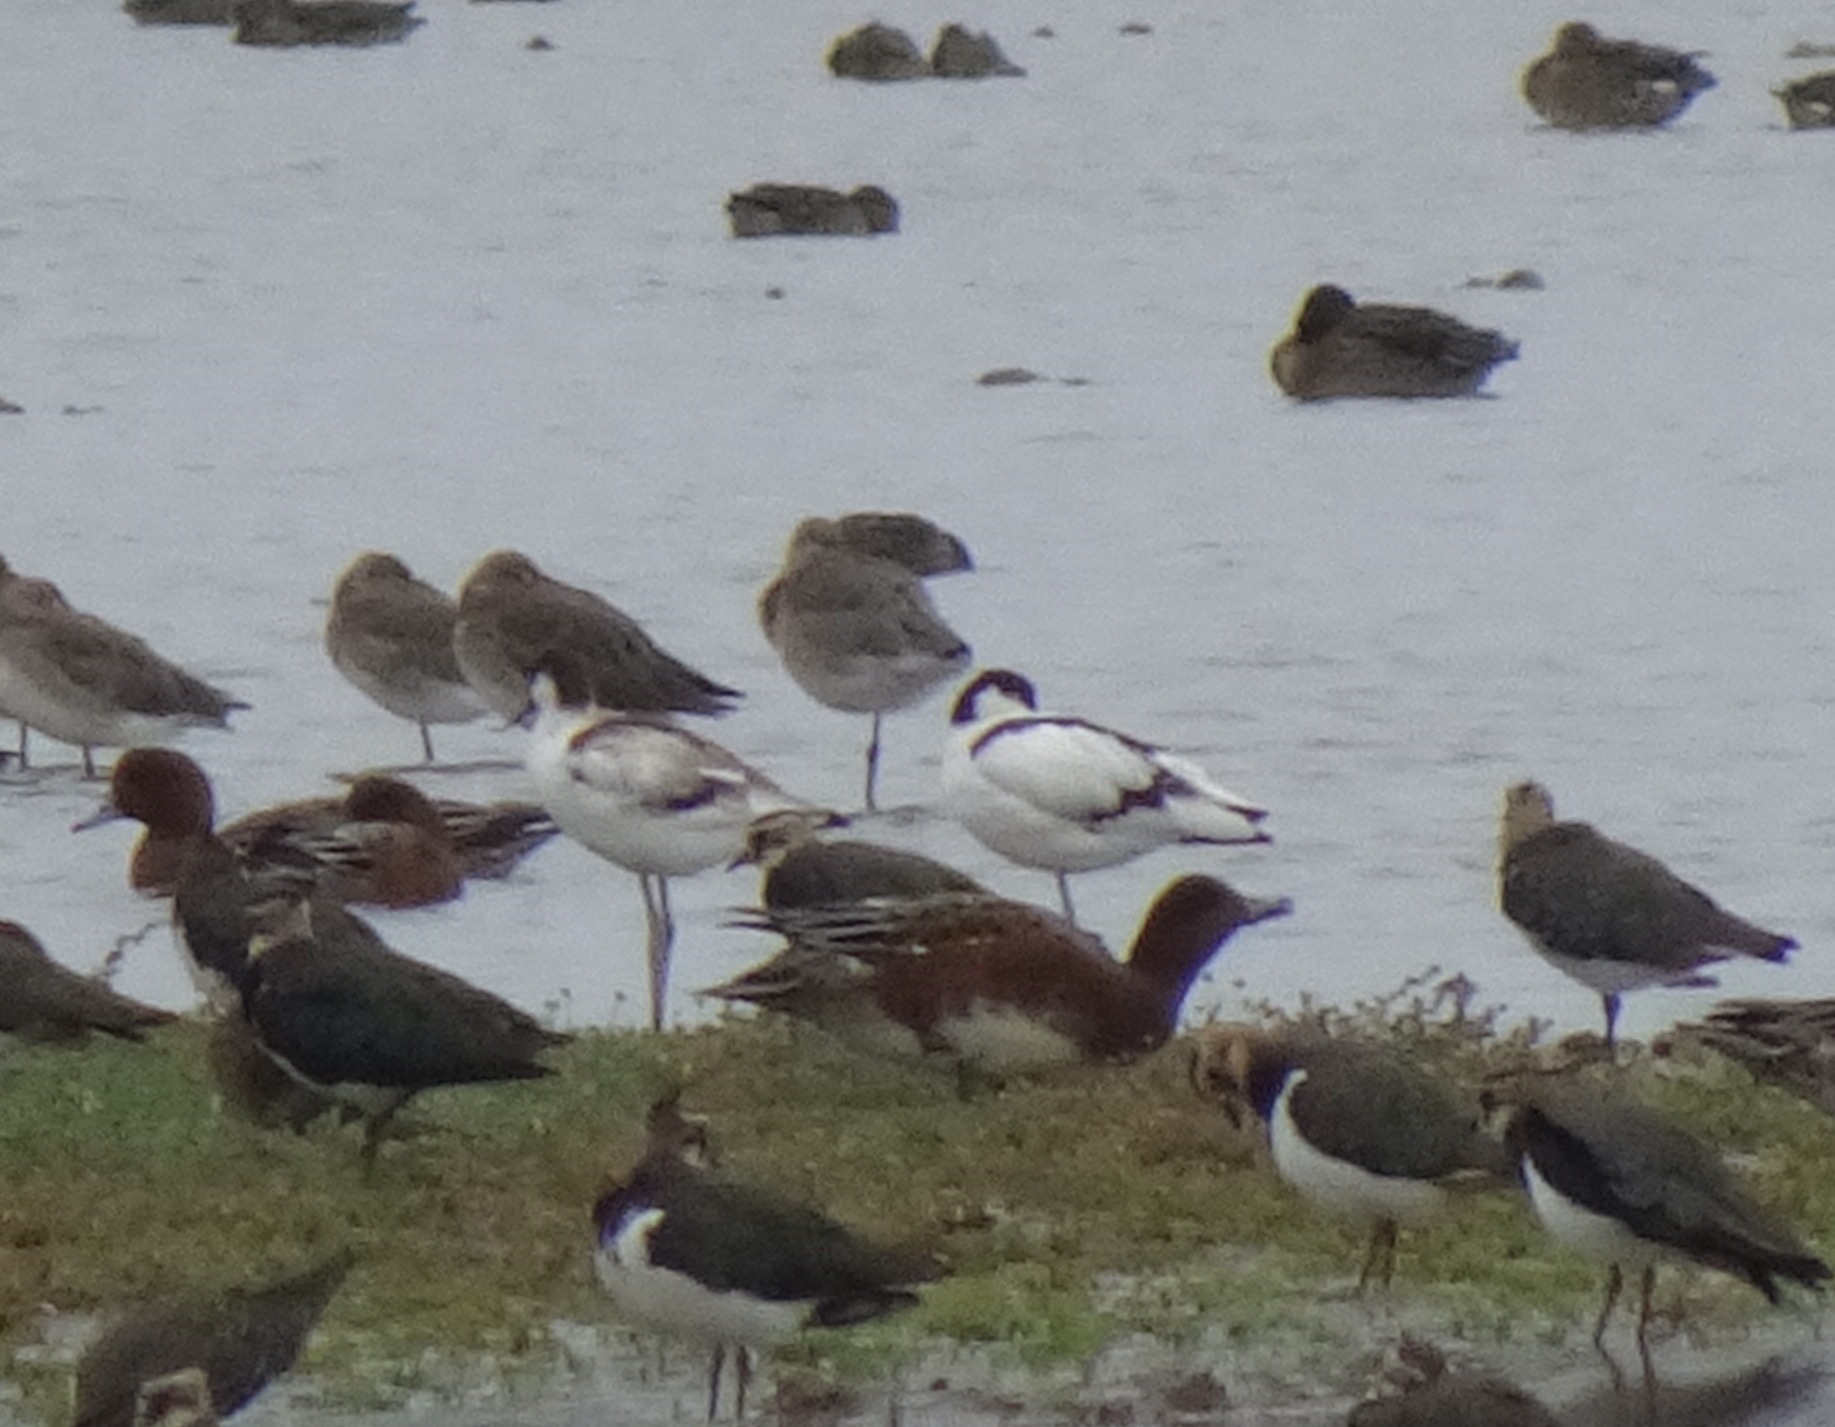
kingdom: Animalia
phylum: Chordata
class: Aves
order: Charadriiformes
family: Recurvirostridae
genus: Recurvirostra
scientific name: Recurvirostra avosetta
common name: Pied avocet
